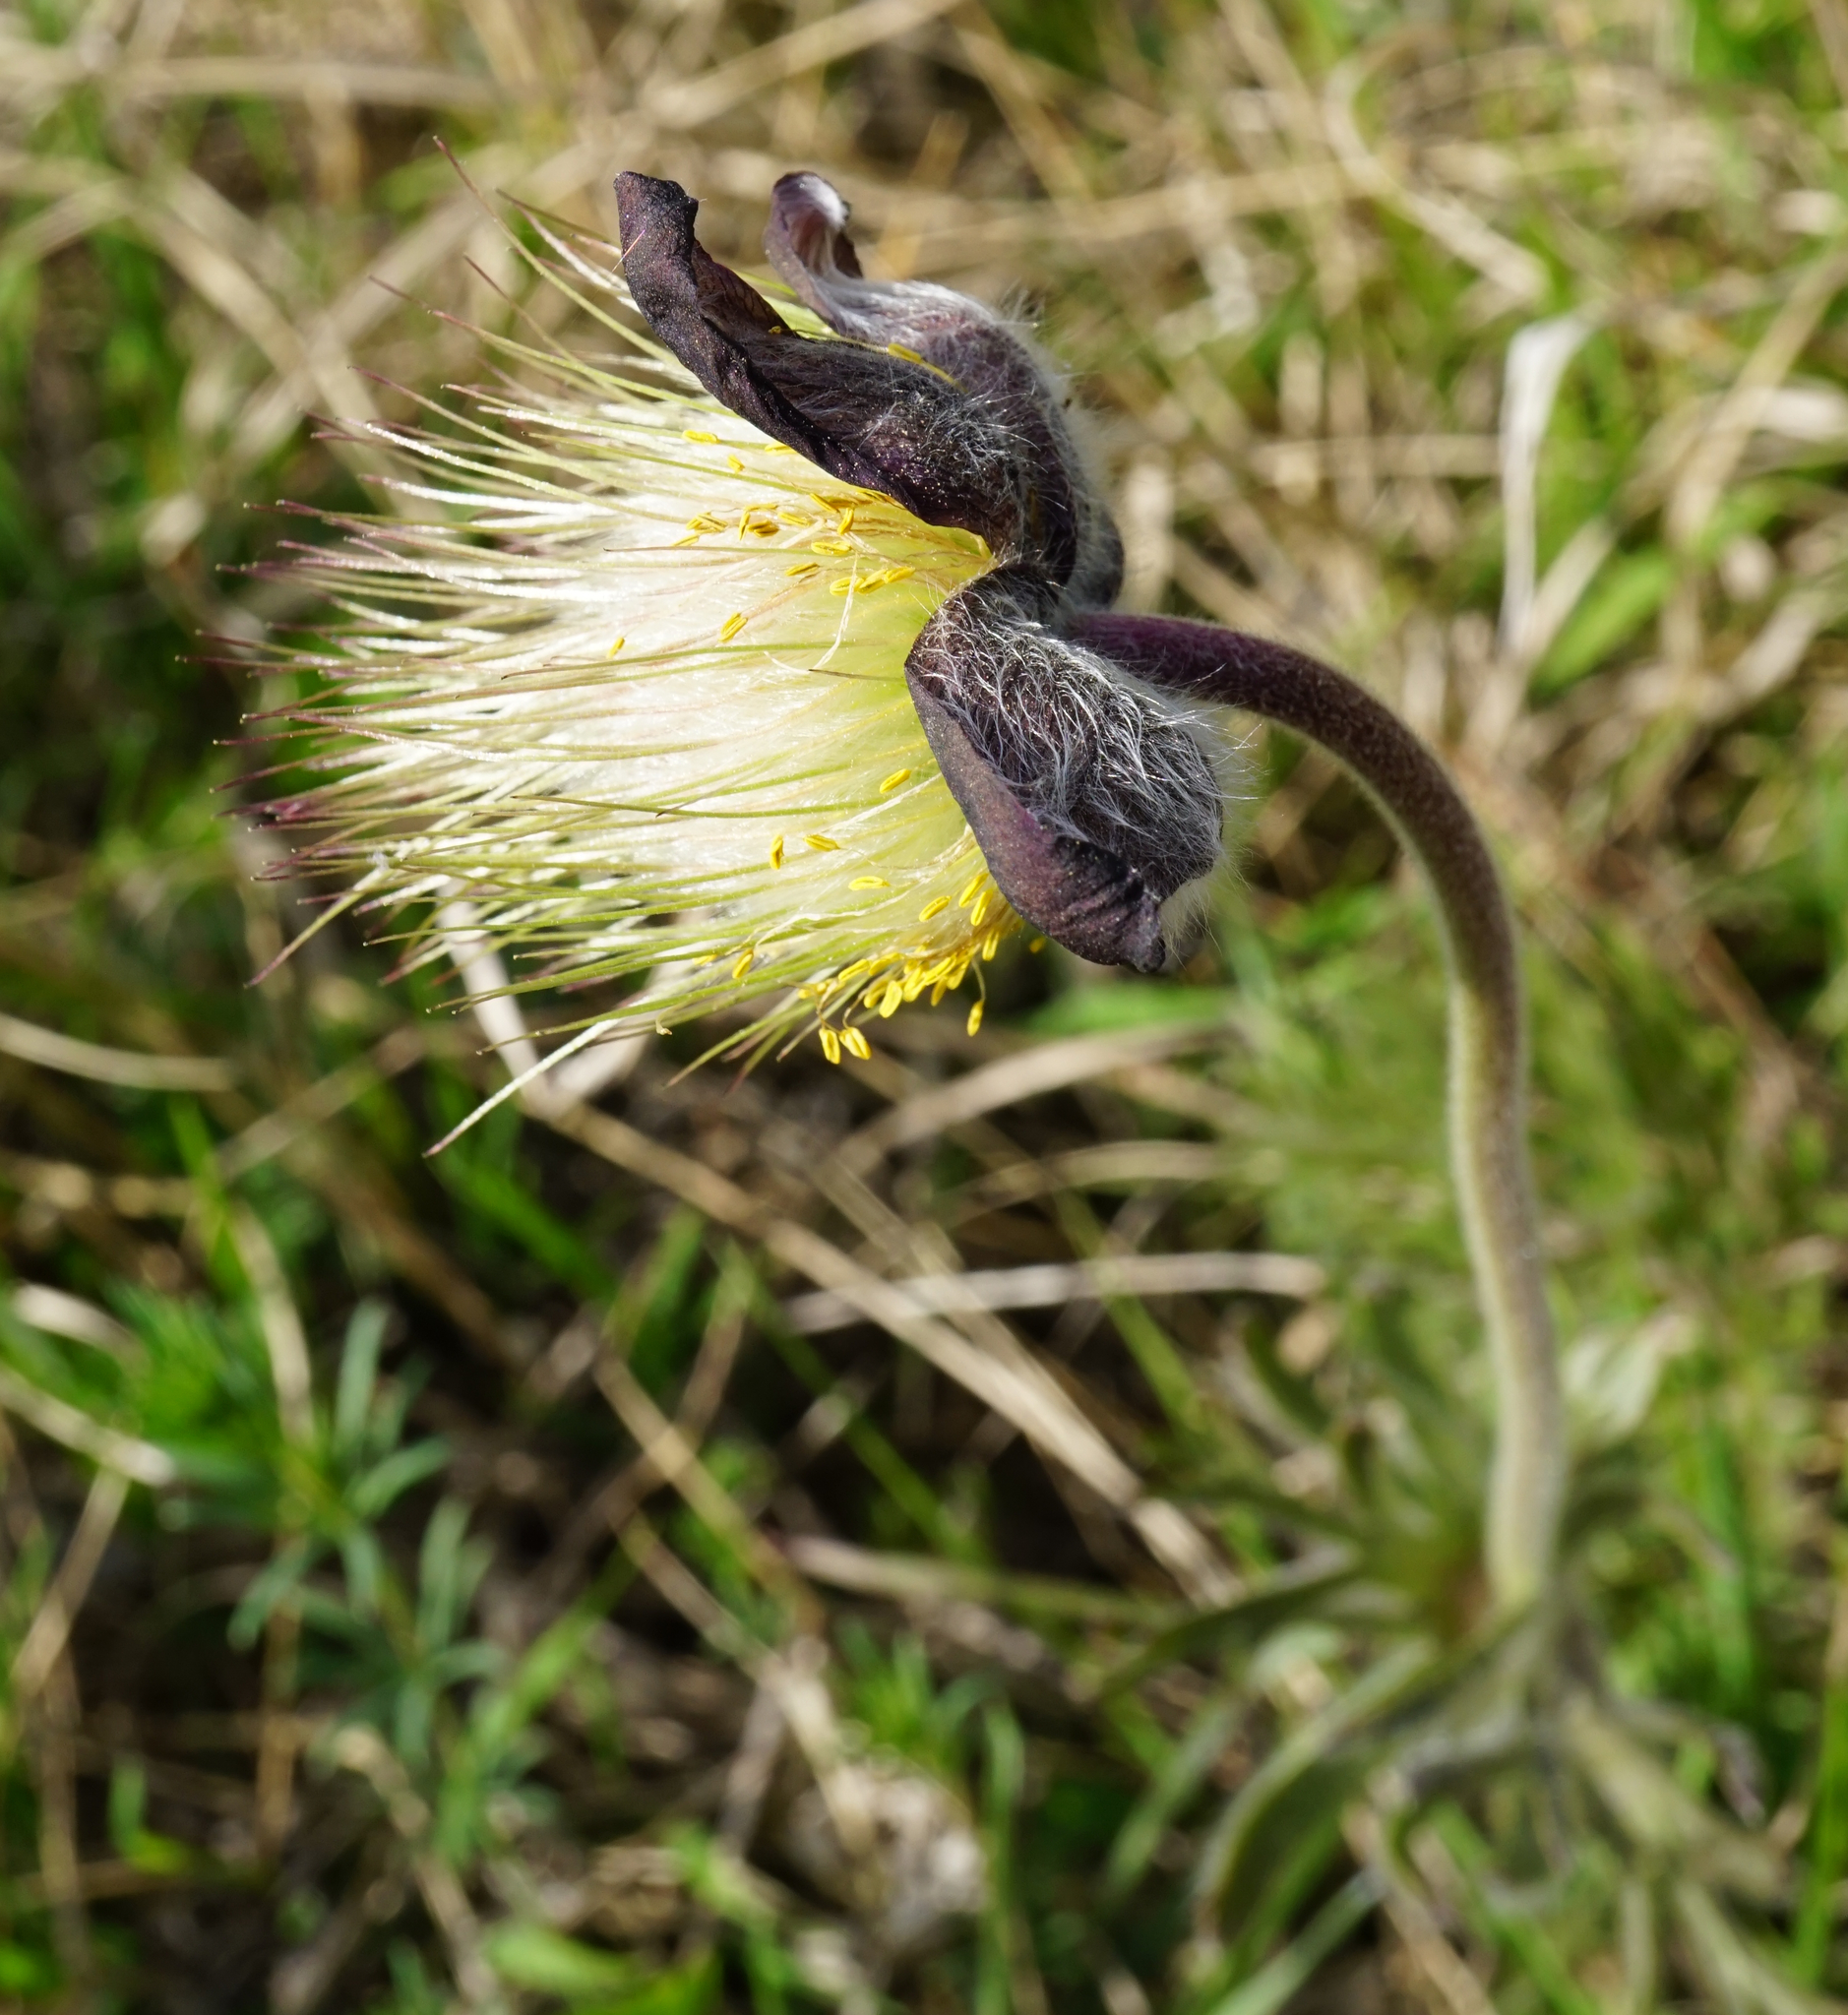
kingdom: Plantae
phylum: Tracheophyta
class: Magnoliopsida
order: Ranunculales
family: Ranunculaceae
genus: Pulsatilla
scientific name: Pulsatilla pratensis
